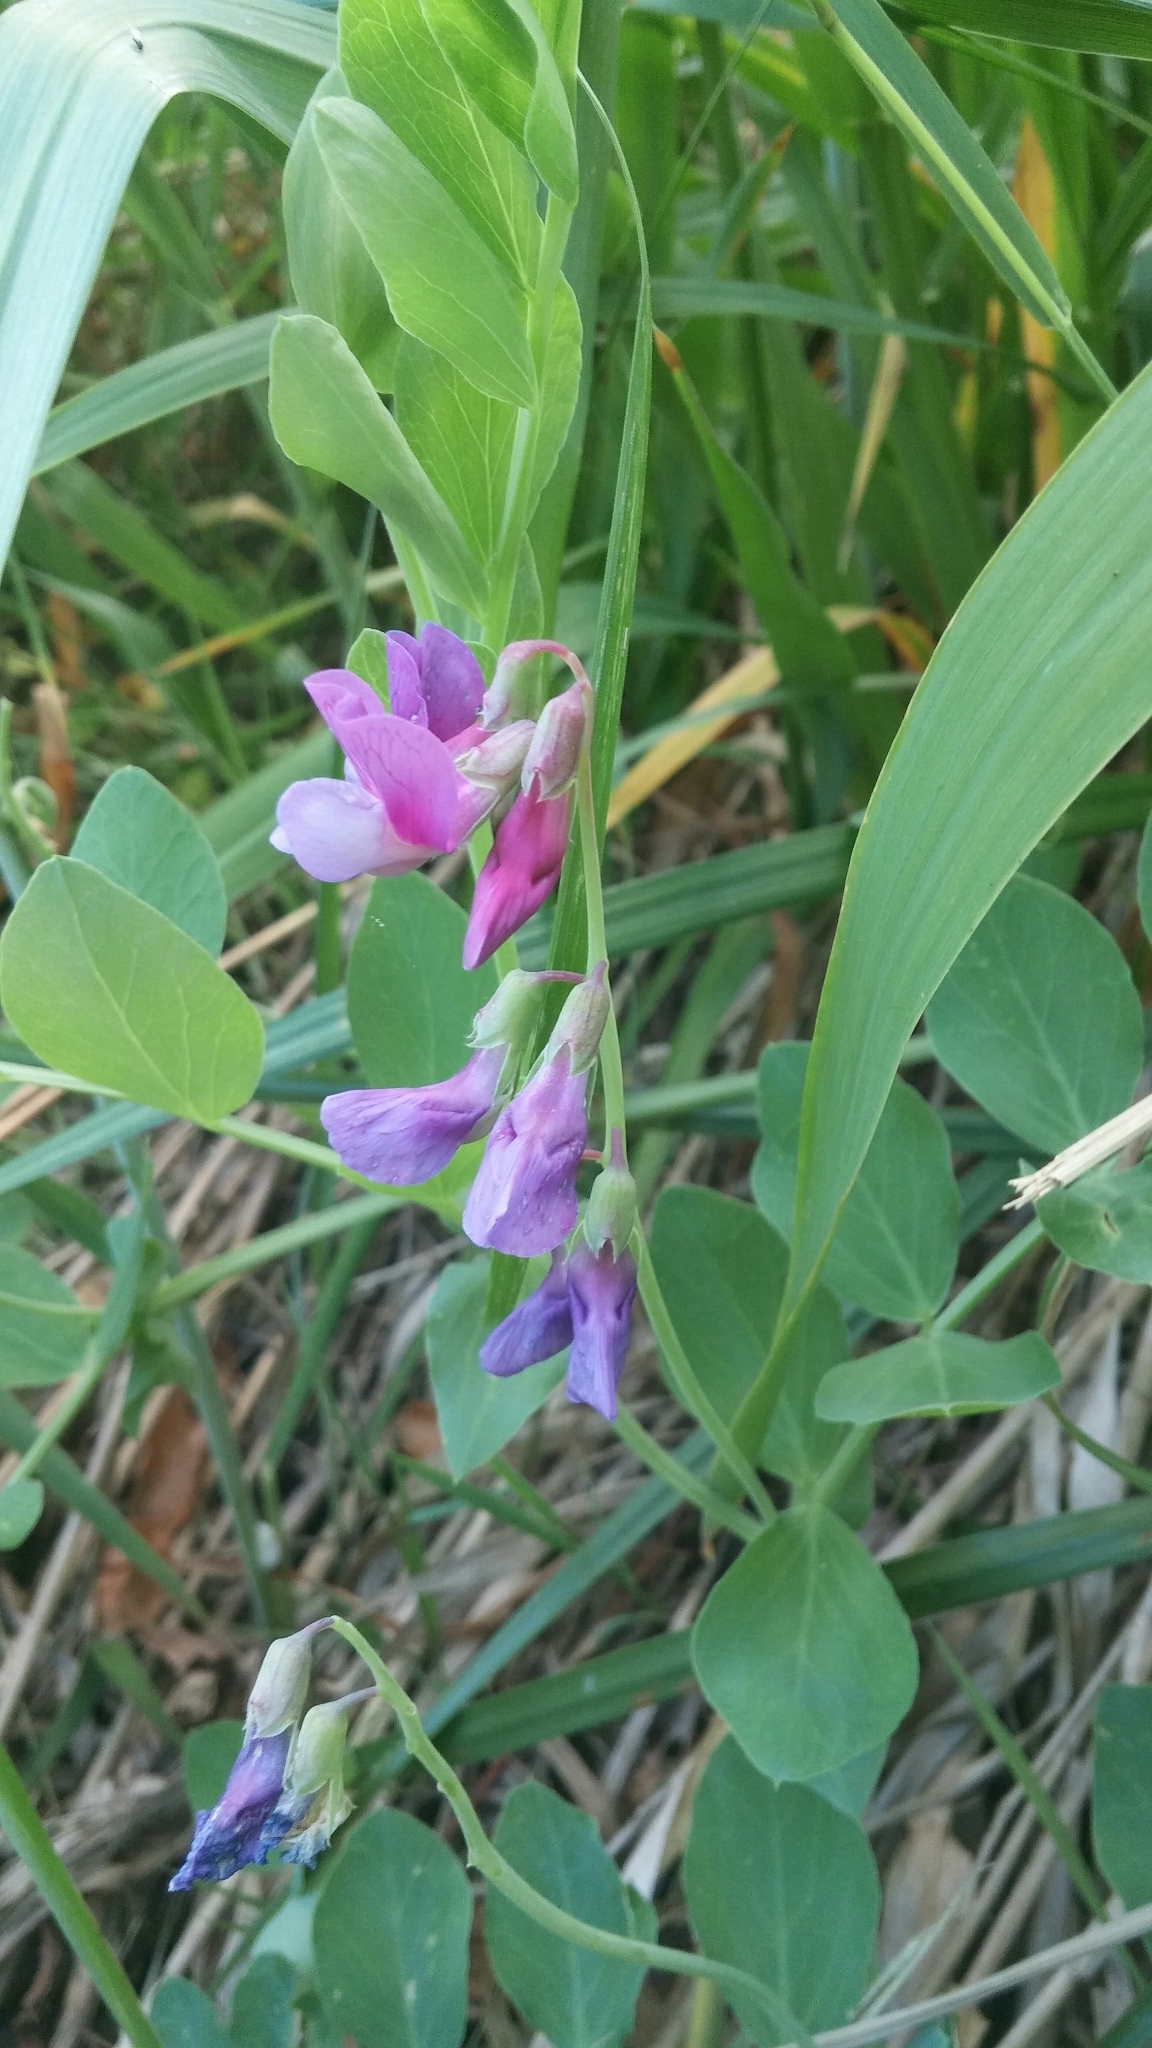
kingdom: Plantae
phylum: Tracheophyta
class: Magnoliopsida
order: Fabales
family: Fabaceae
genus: Lathyrus
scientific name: Lathyrus japonicus
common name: Sea pea
